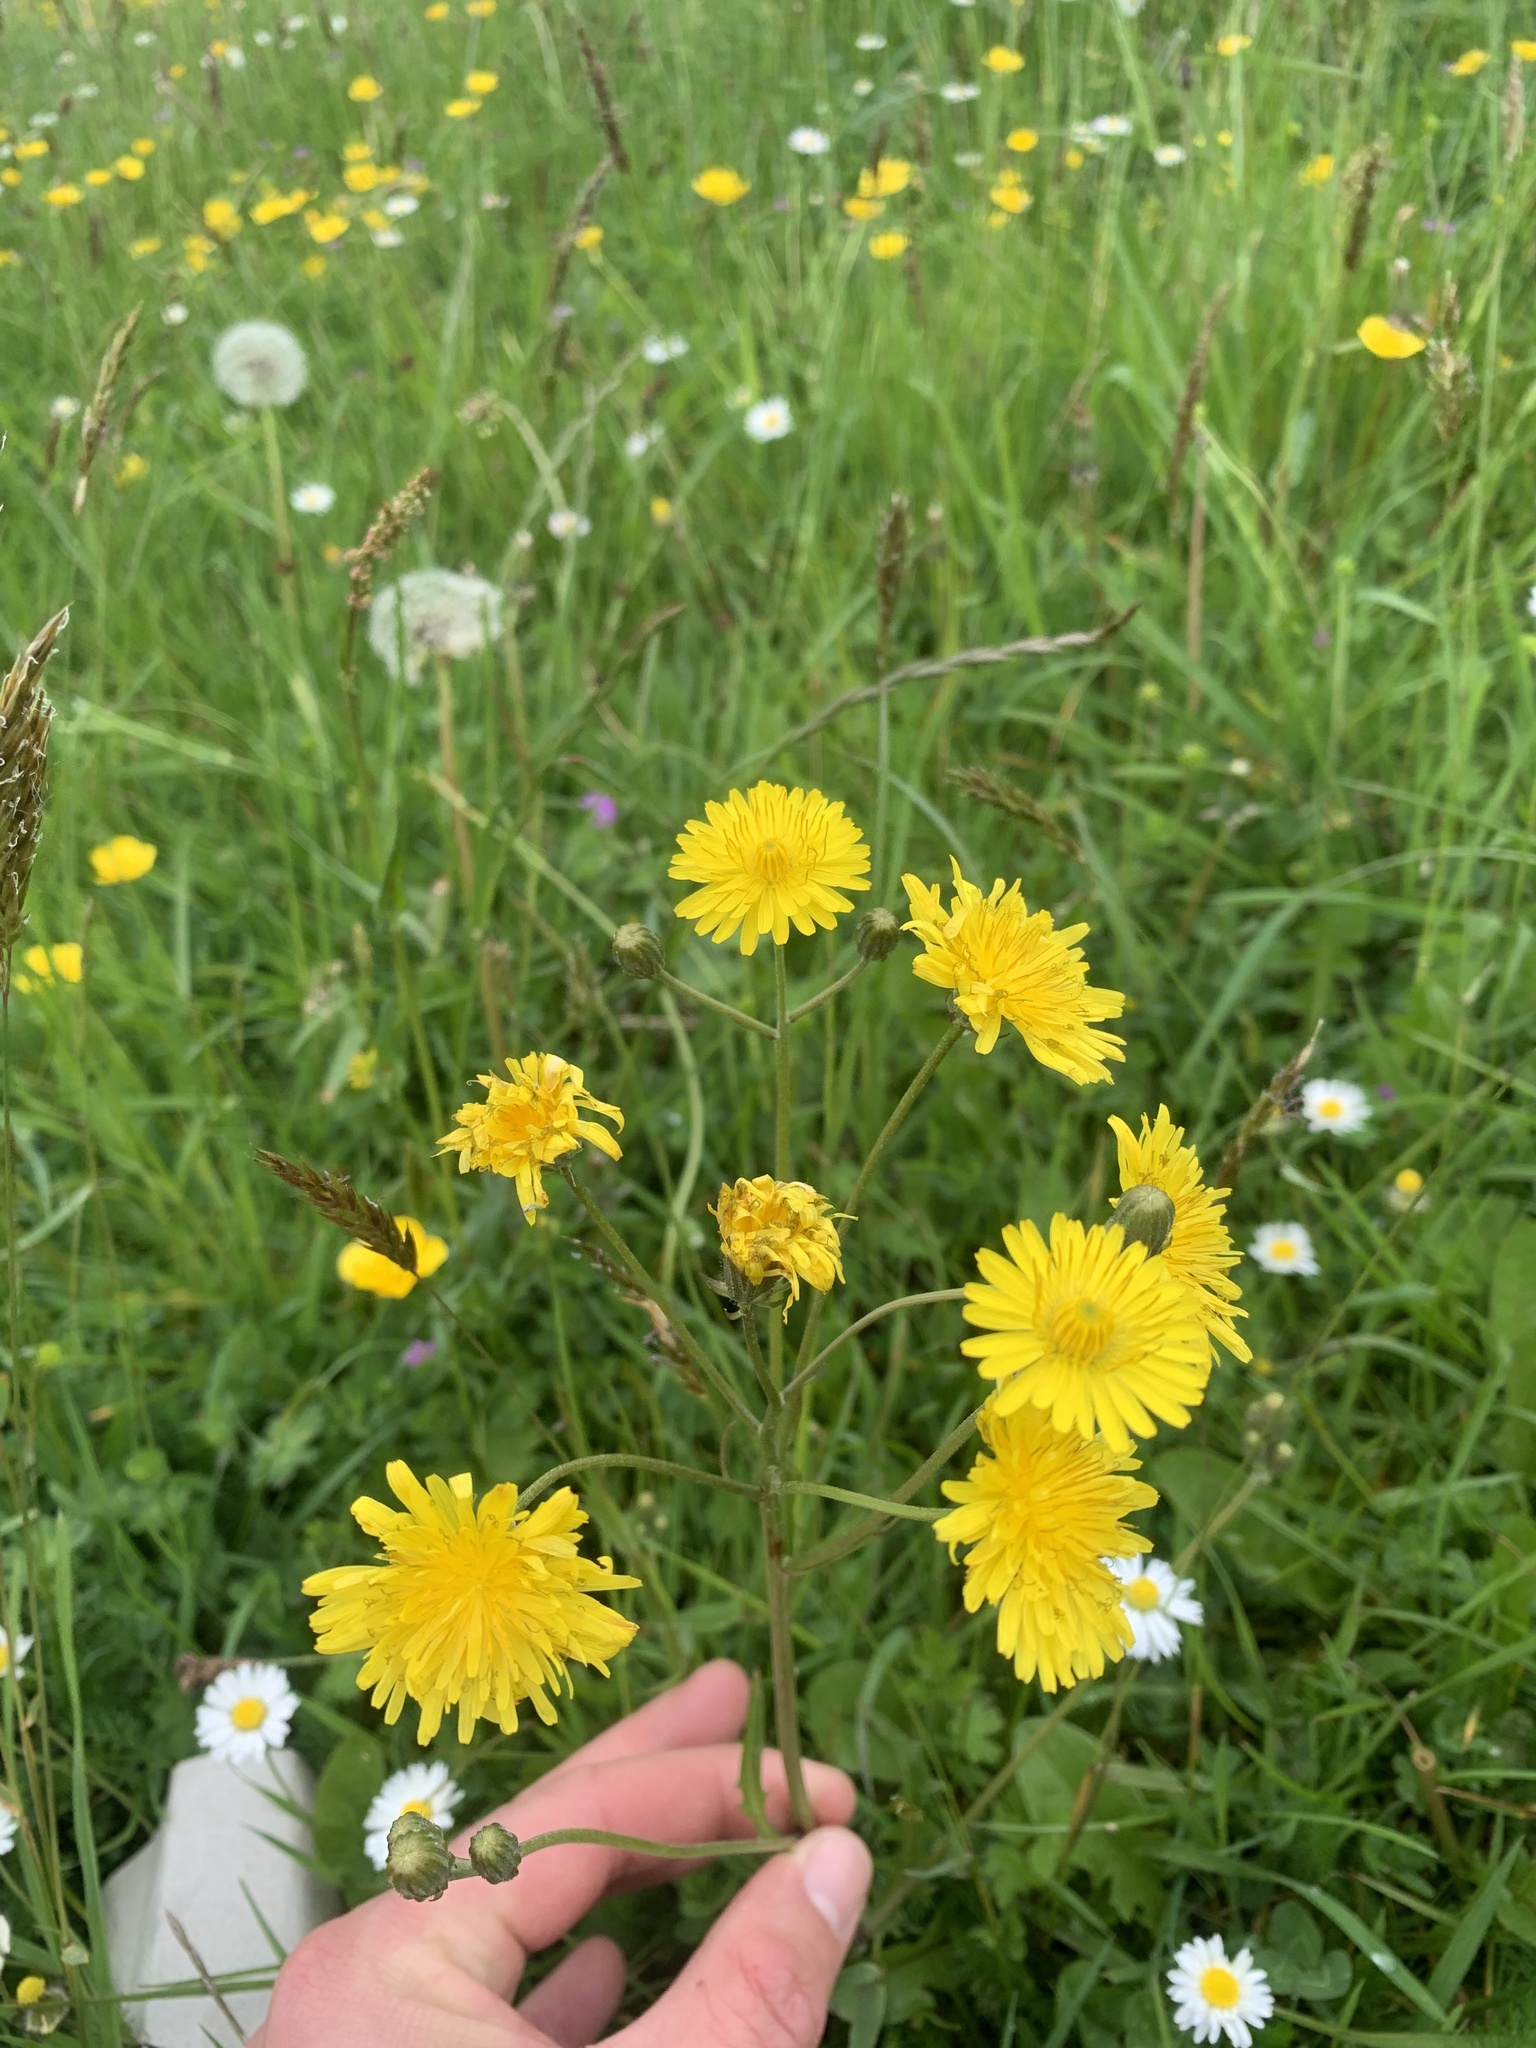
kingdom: Plantae
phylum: Tracheophyta
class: Magnoliopsida
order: Asterales
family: Asteraceae
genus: Taraxacum
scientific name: Taraxacum officinale
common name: Common dandelion
